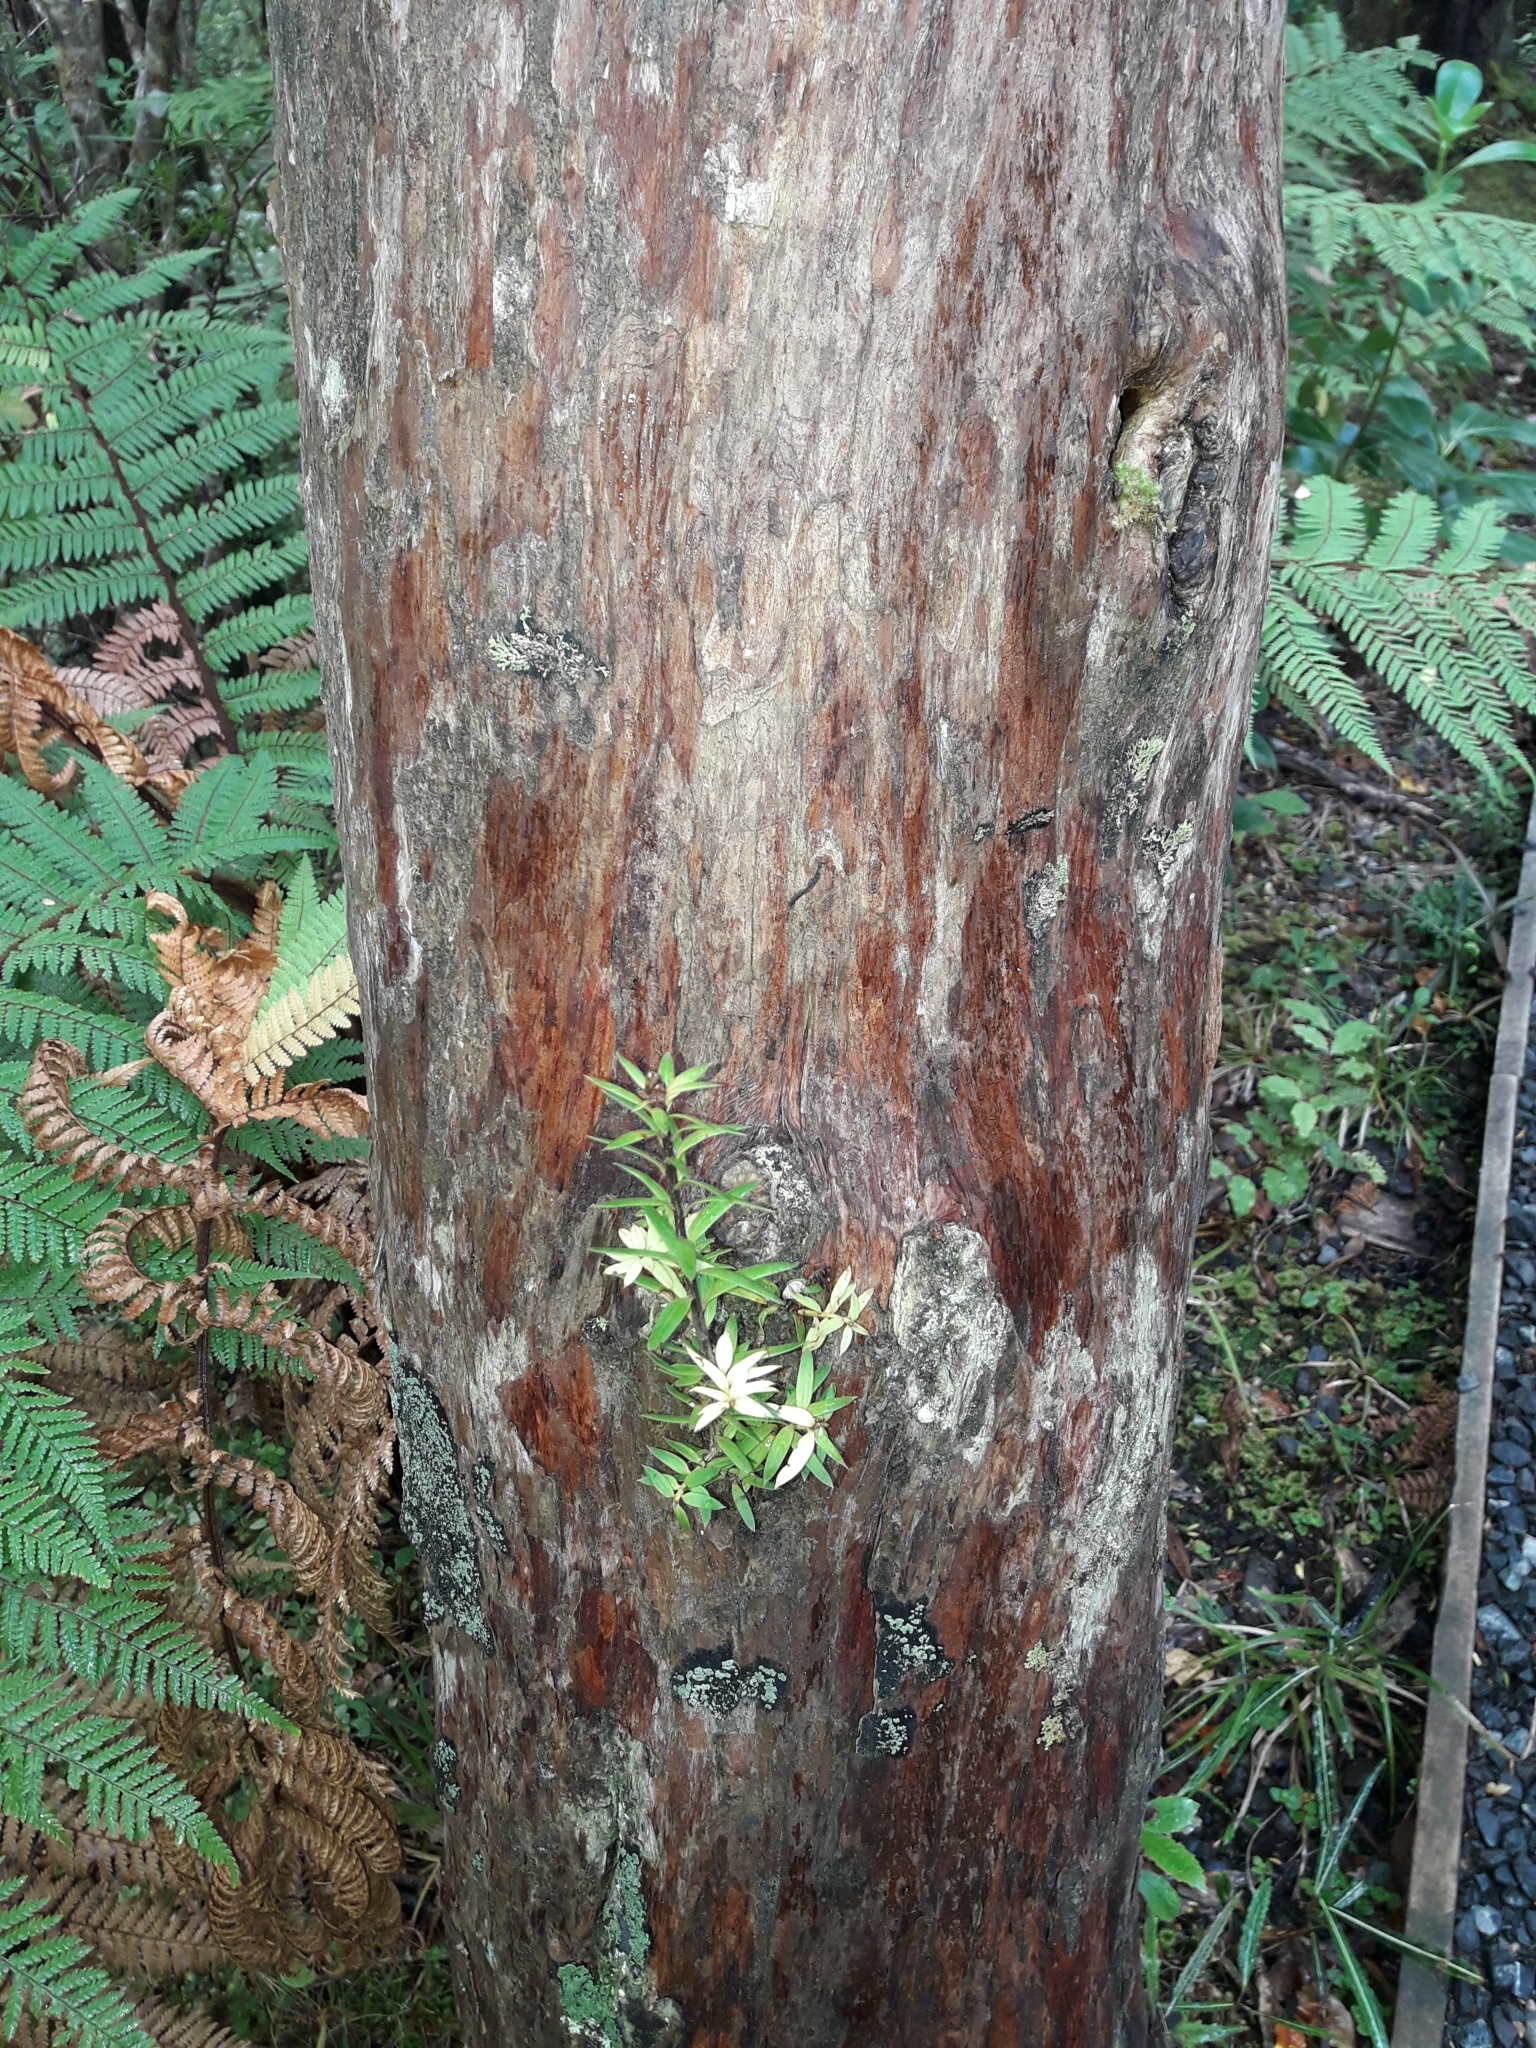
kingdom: Plantae
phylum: Tracheophyta
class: Pinopsida
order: Pinales
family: Podocarpaceae
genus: Podocarpus
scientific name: Podocarpus laetus
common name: Hall's totara
